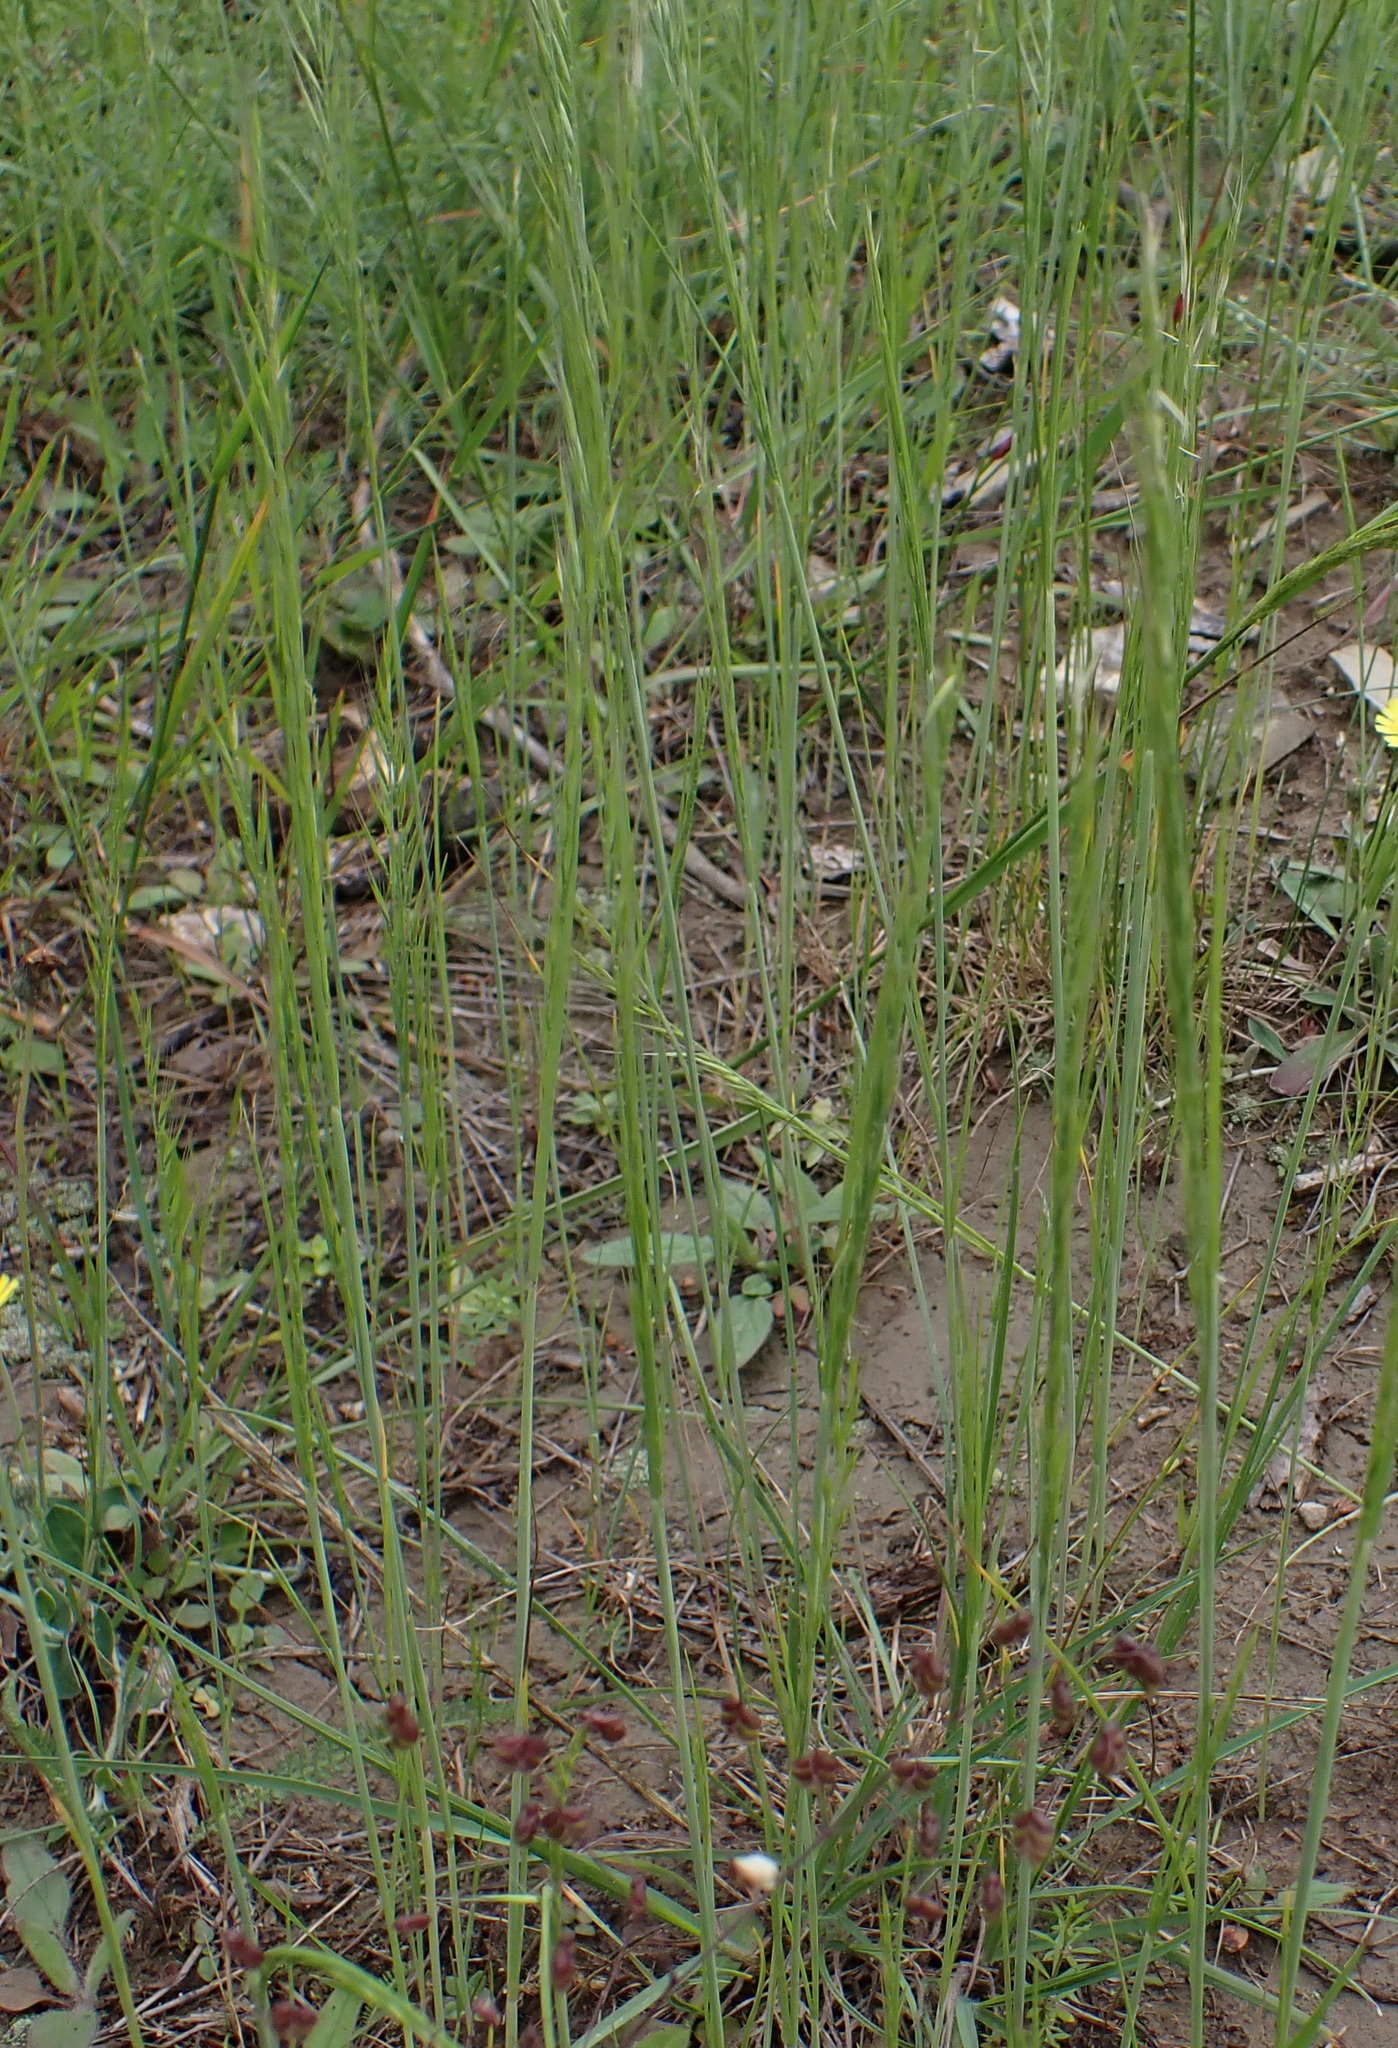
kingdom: Plantae
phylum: Tracheophyta
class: Liliopsida
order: Poales
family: Poaceae
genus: Festuca
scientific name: Festuca myuros
